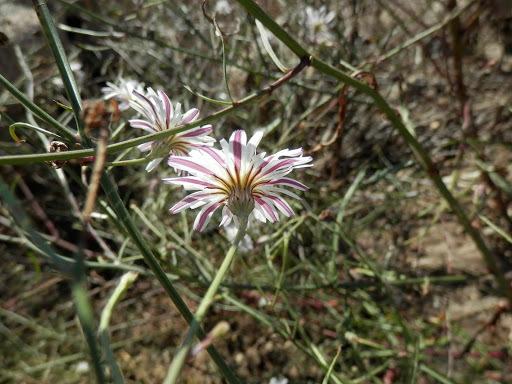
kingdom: Plantae
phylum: Tracheophyta
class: Magnoliopsida
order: Asterales
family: Asteraceae
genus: Malacothrix
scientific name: Malacothrix saxatilis
